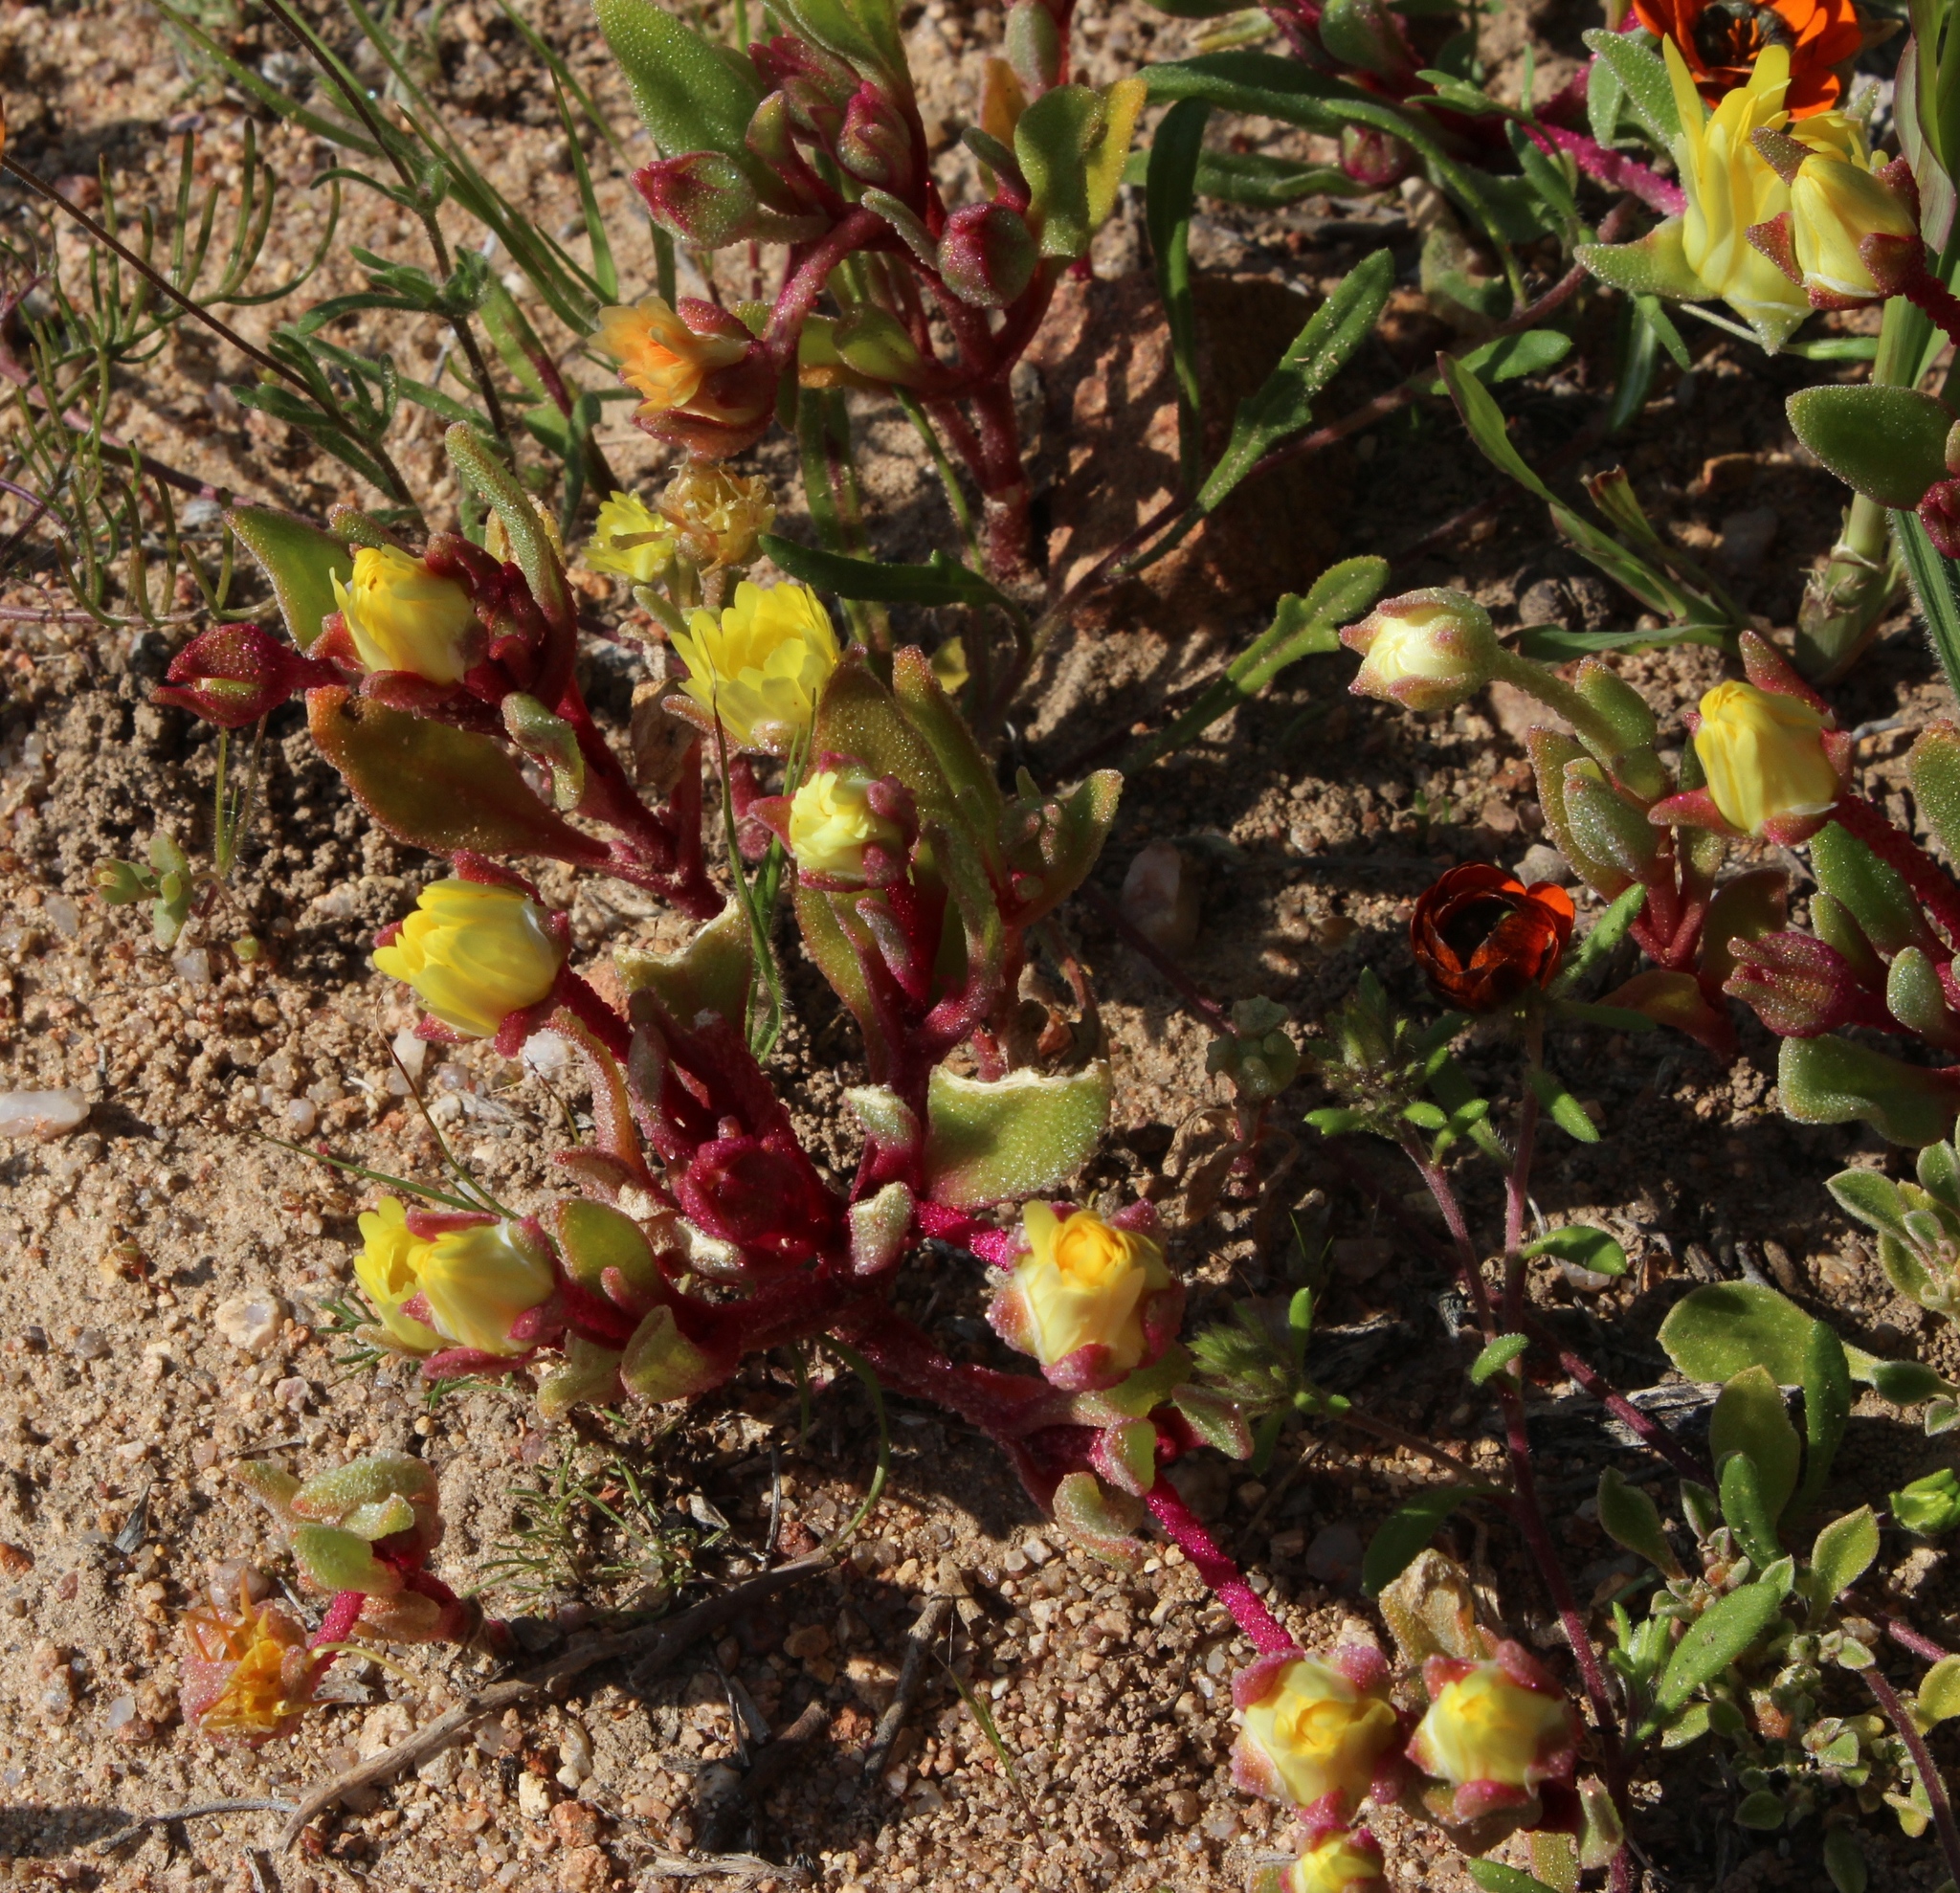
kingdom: Plantae
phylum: Tracheophyta
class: Magnoliopsida
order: Caryophyllales
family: Aizoaceae
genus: Cleretum
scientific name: Cleretum papulosum
